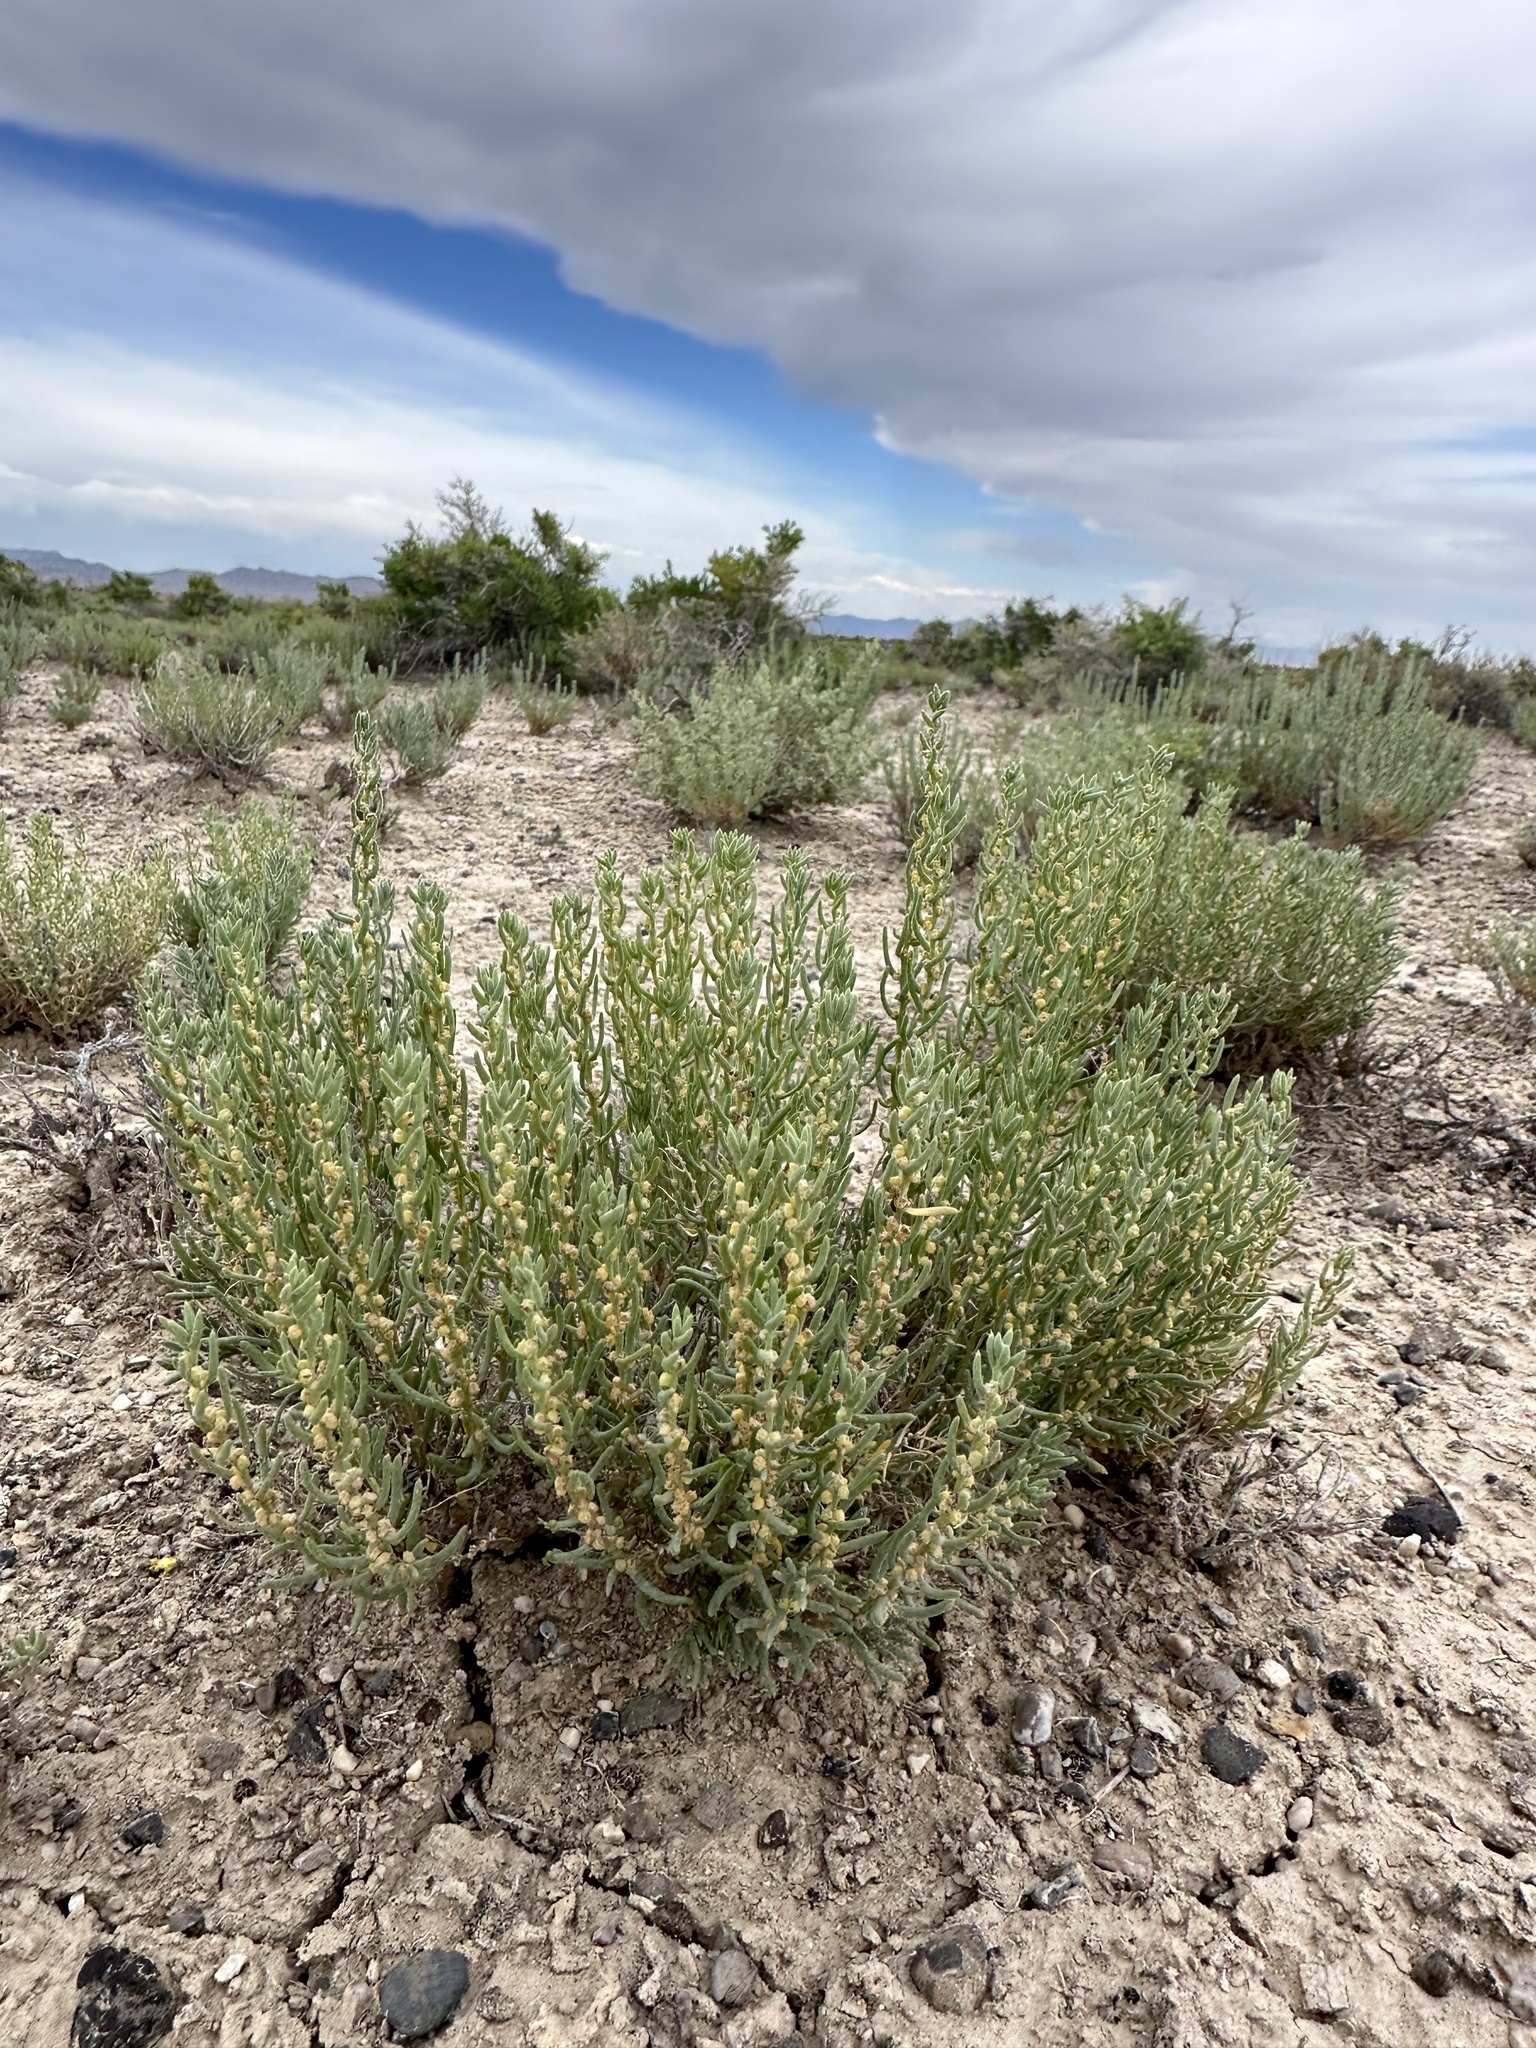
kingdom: Plantae
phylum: Tracheophyta
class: Magnoliopsida
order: Caryophyllales
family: Amaranthaceae
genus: Neokochia
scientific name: Neokochia americana
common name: Perennial summer-cypress
